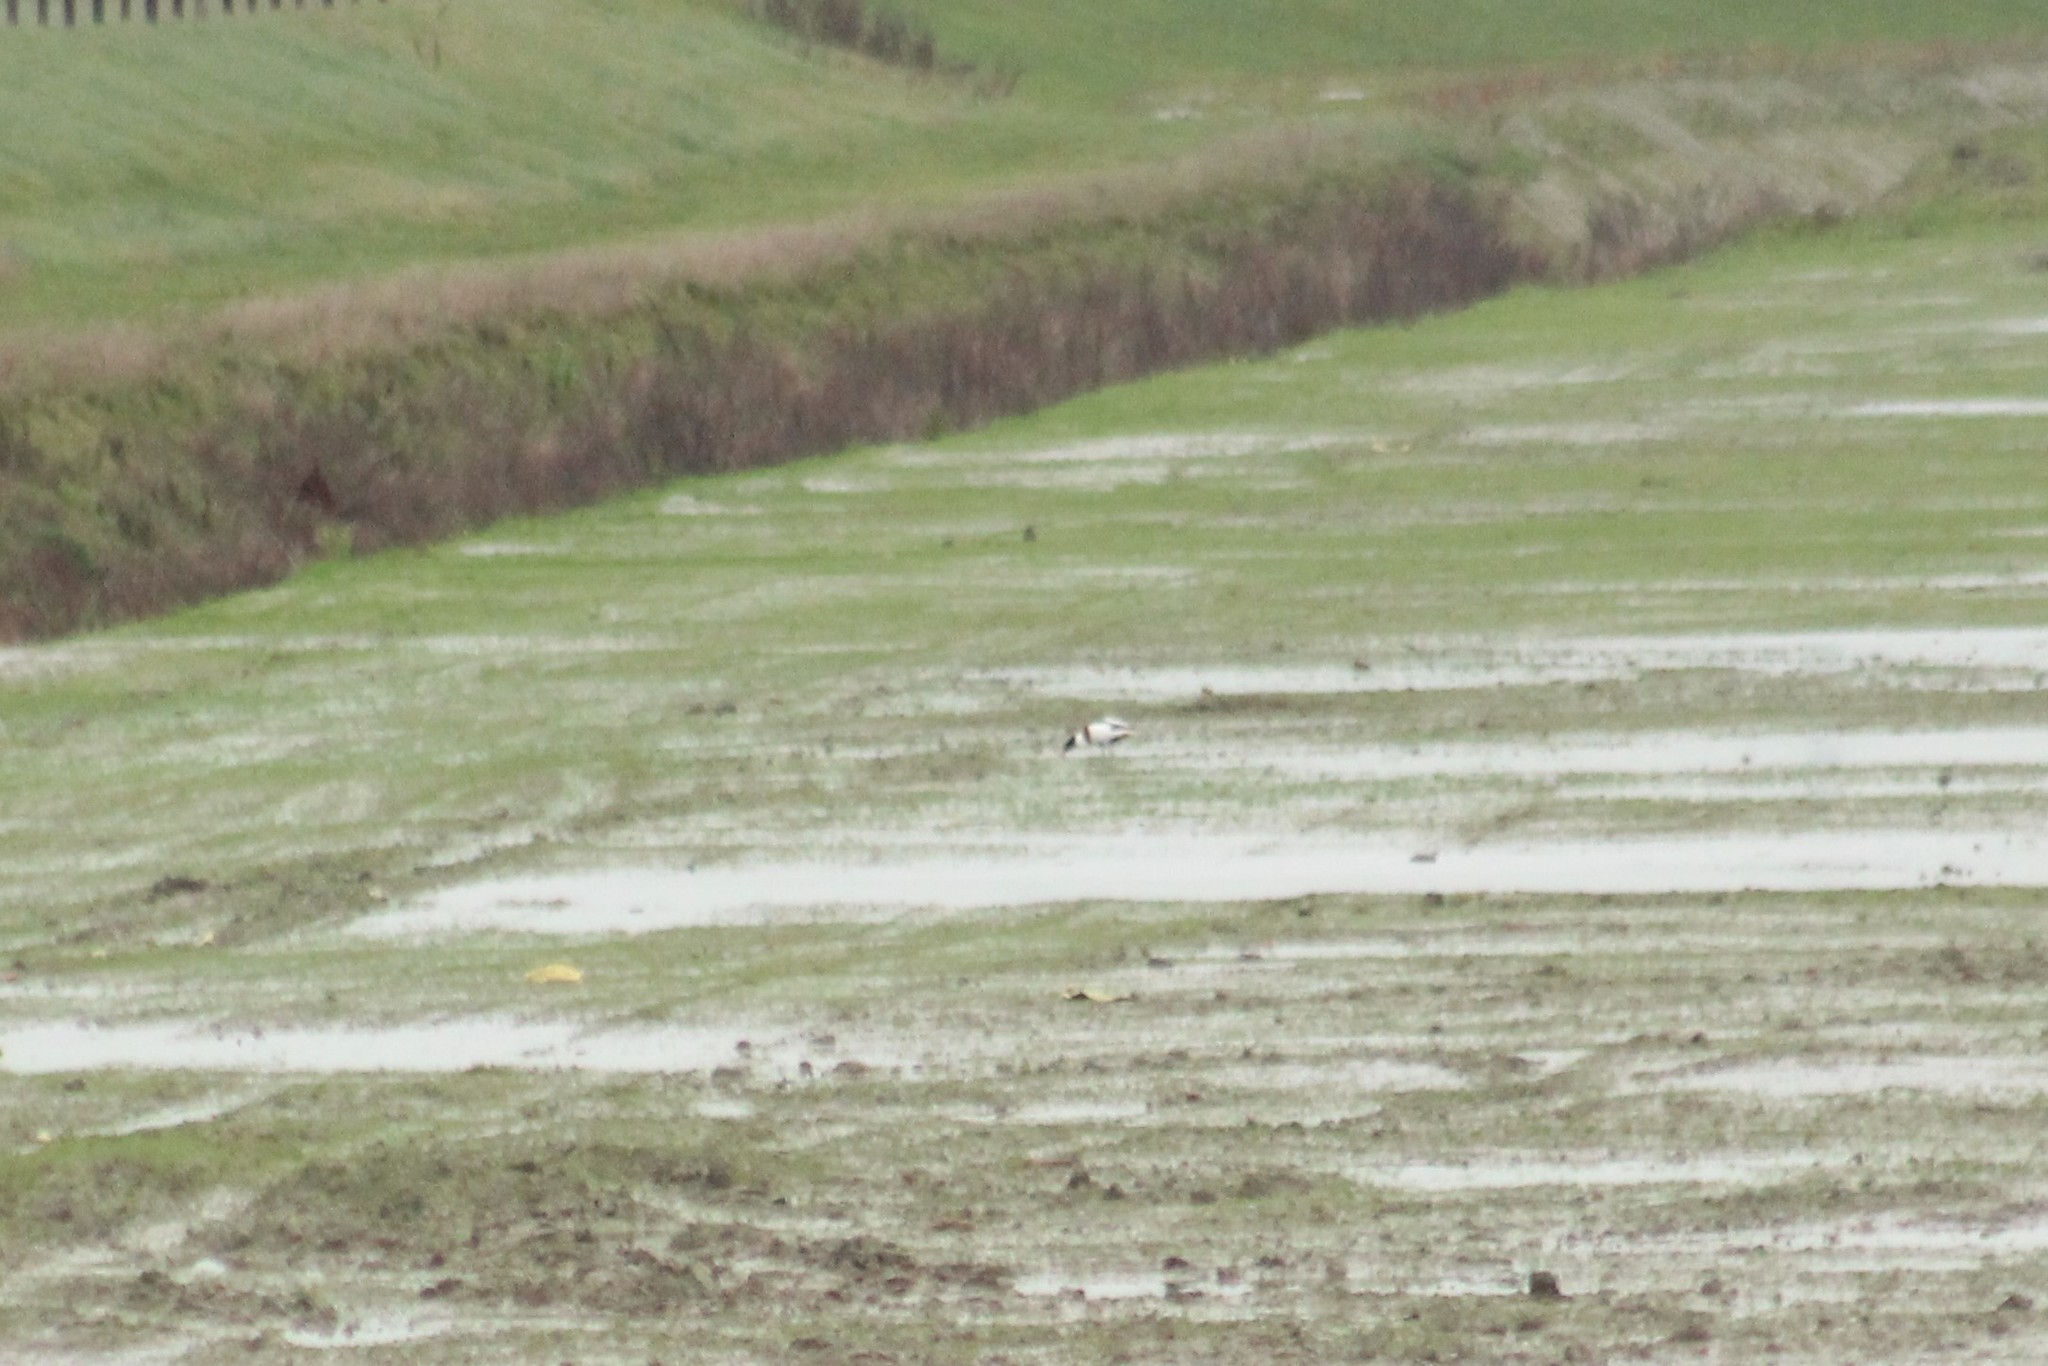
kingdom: Animalia
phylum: Chordata
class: Aves
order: Anseriformes
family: Anatidae
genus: Tadorna
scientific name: Tadorna tadorna
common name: Common shelduck
